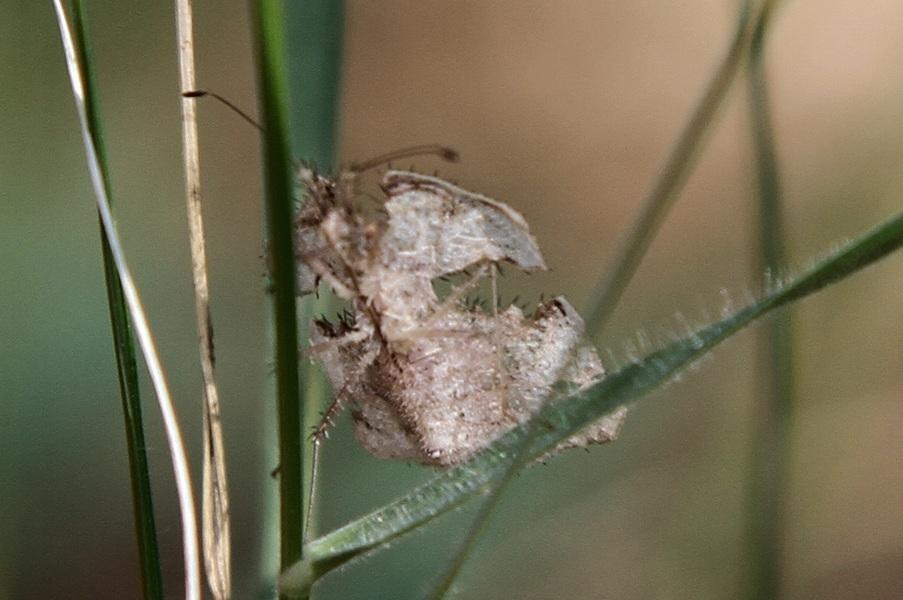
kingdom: Animalia
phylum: Arthropoda
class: Insecta
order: Hemiptera
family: Coreidae
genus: Tongorma
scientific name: Tongorma latreillii
